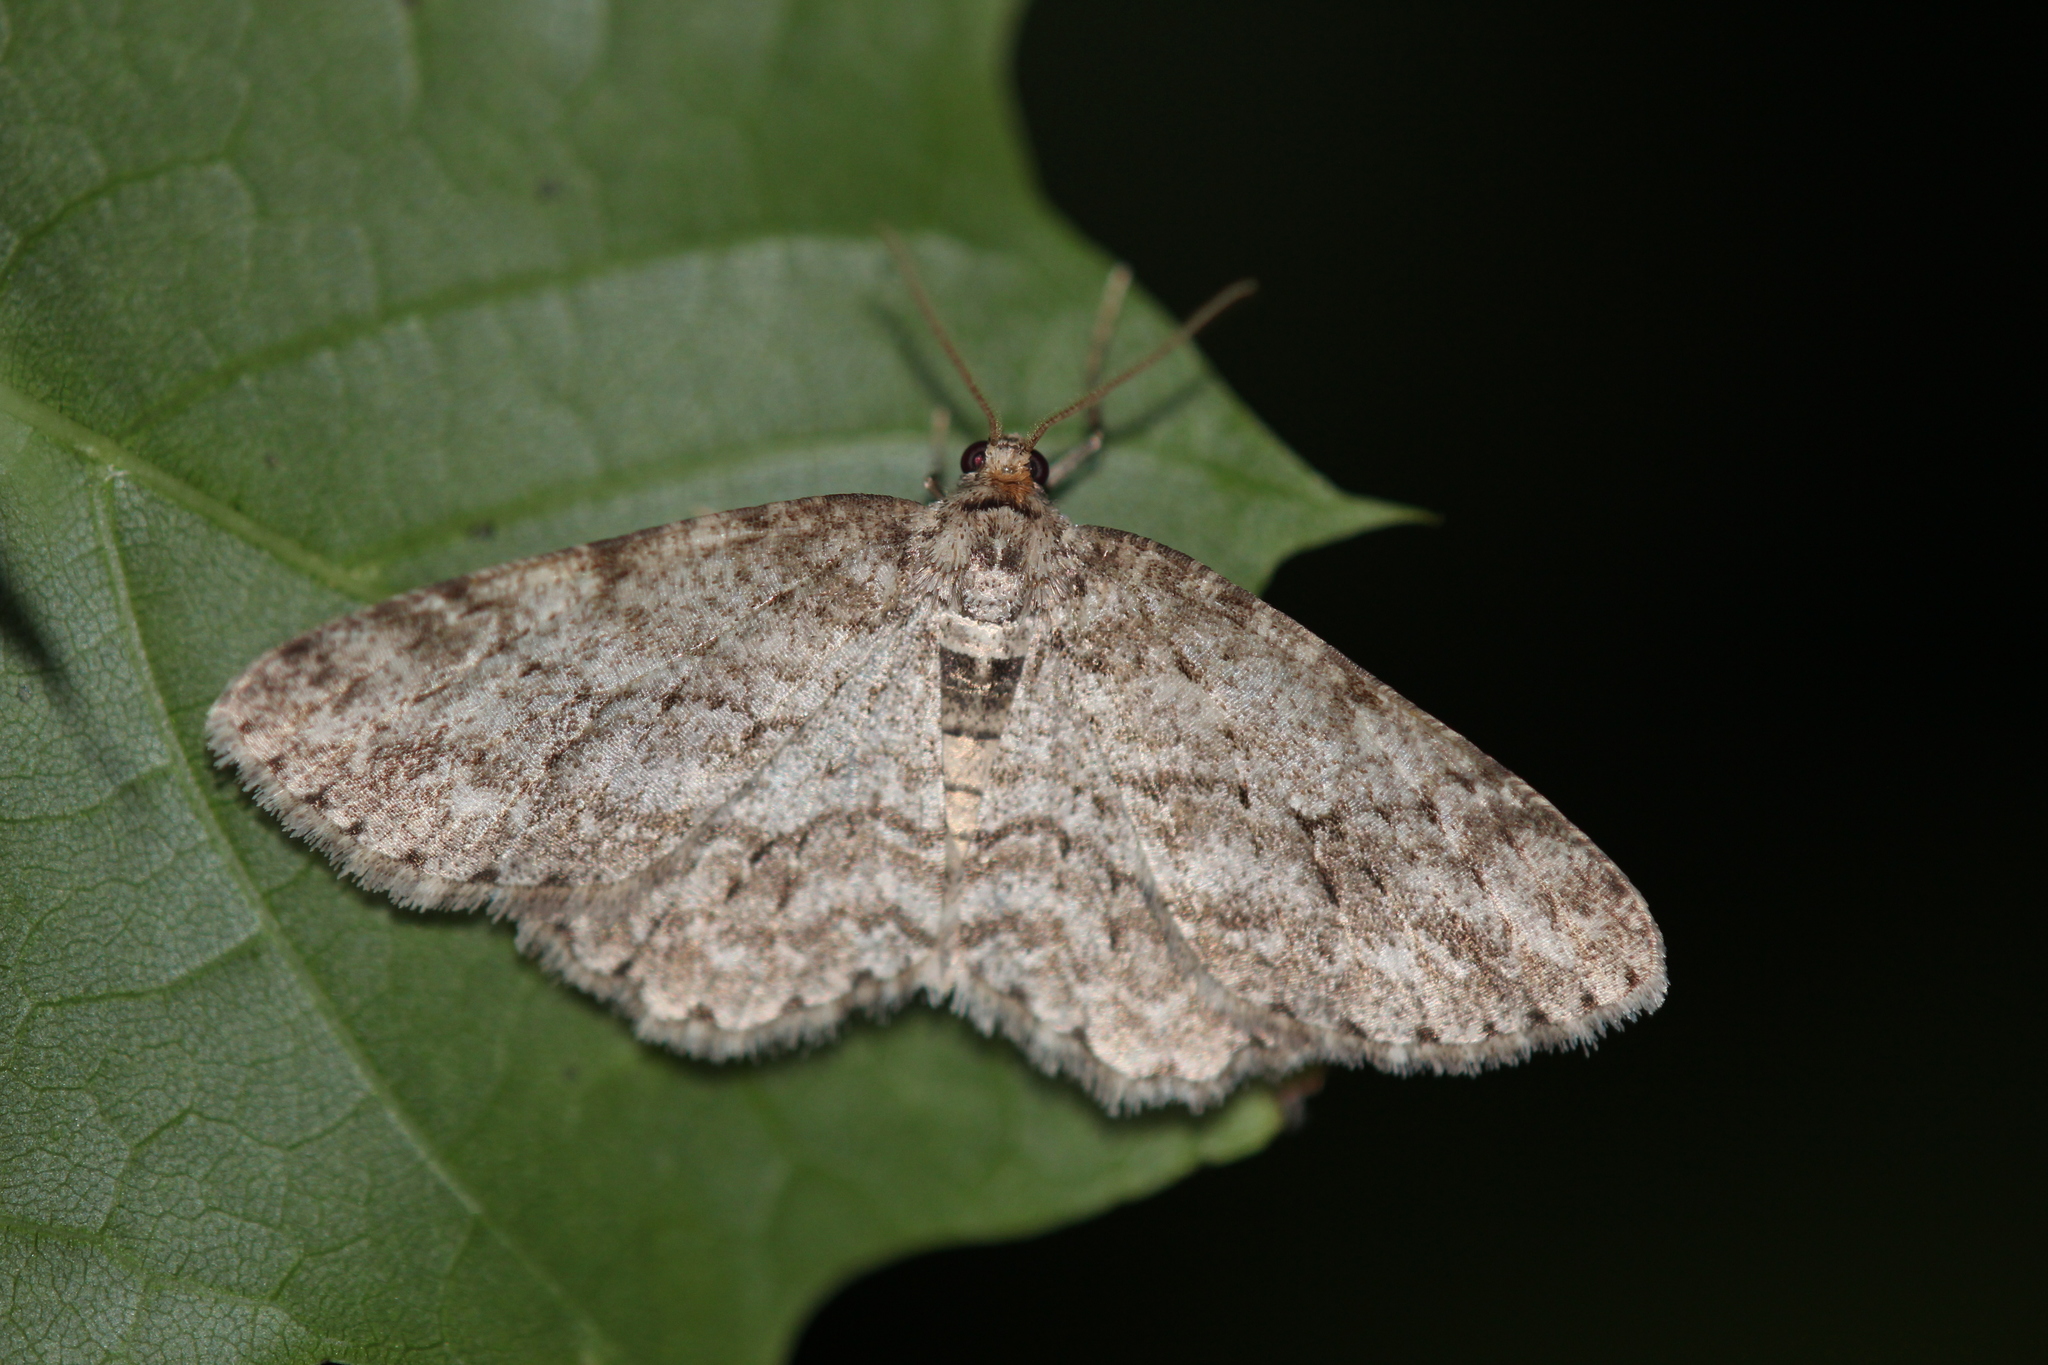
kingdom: Animalia
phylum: Arthropoda
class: Insecta
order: Lepidoptera
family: Geometridae
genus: Ectropis
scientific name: Ectropis crepuscularia
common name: Engrailed
